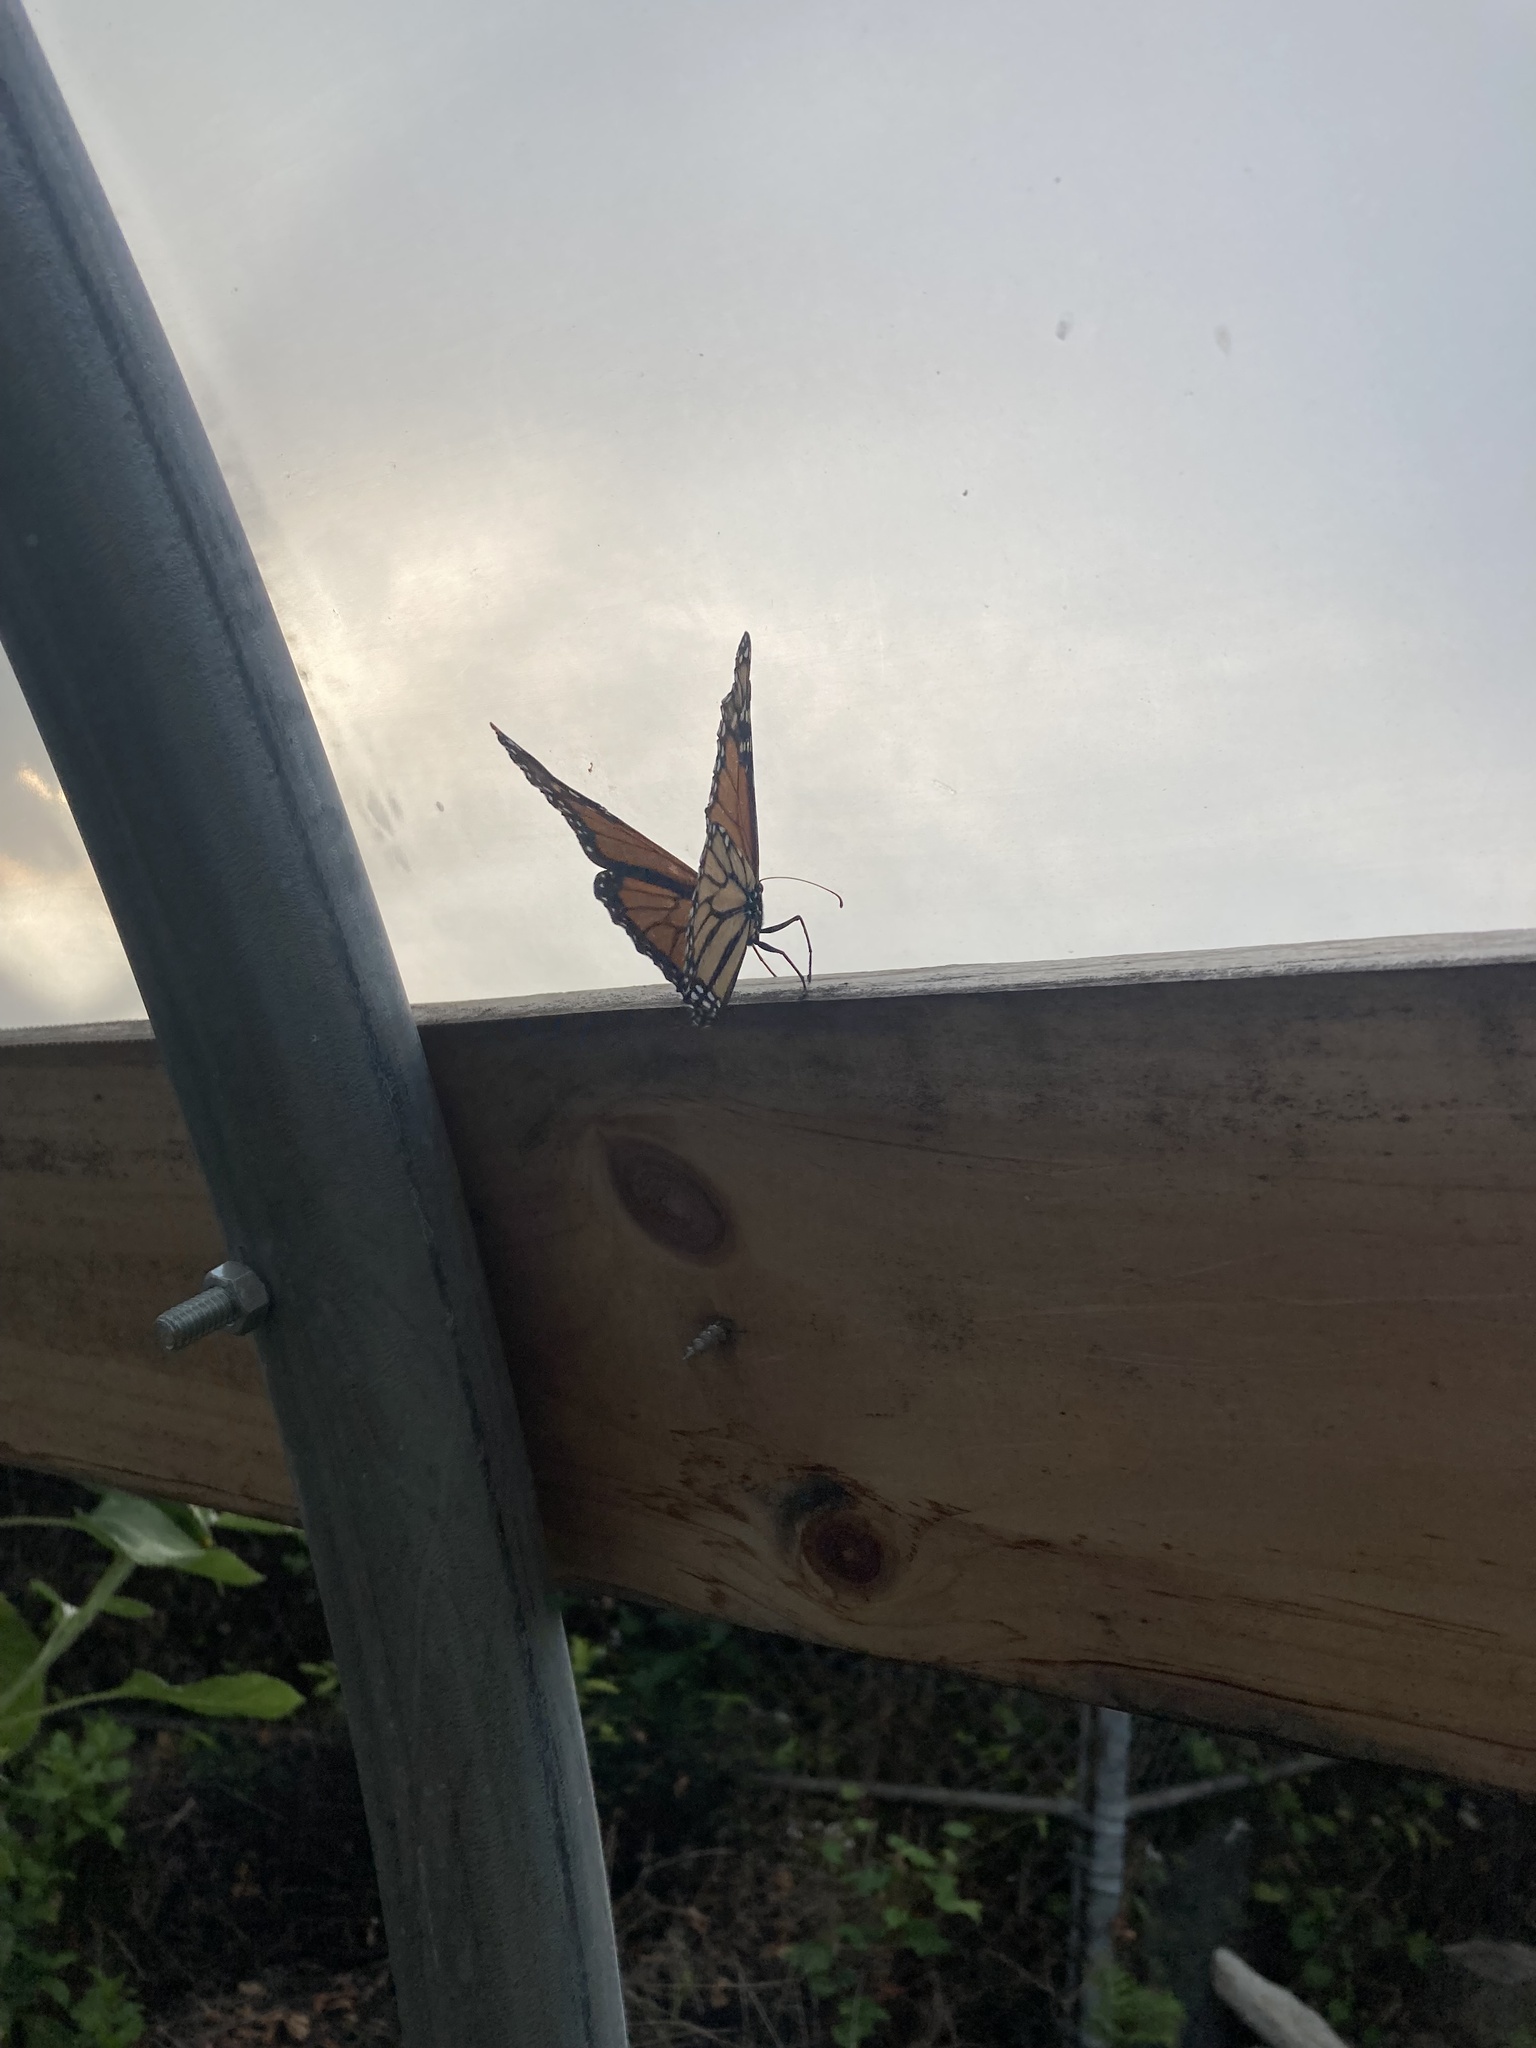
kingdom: Animalia
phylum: Arthropoda
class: Insecta
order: Lepidoptera
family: Nymphalidae
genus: Danaus
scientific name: Danaus plexippus
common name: Monarch
